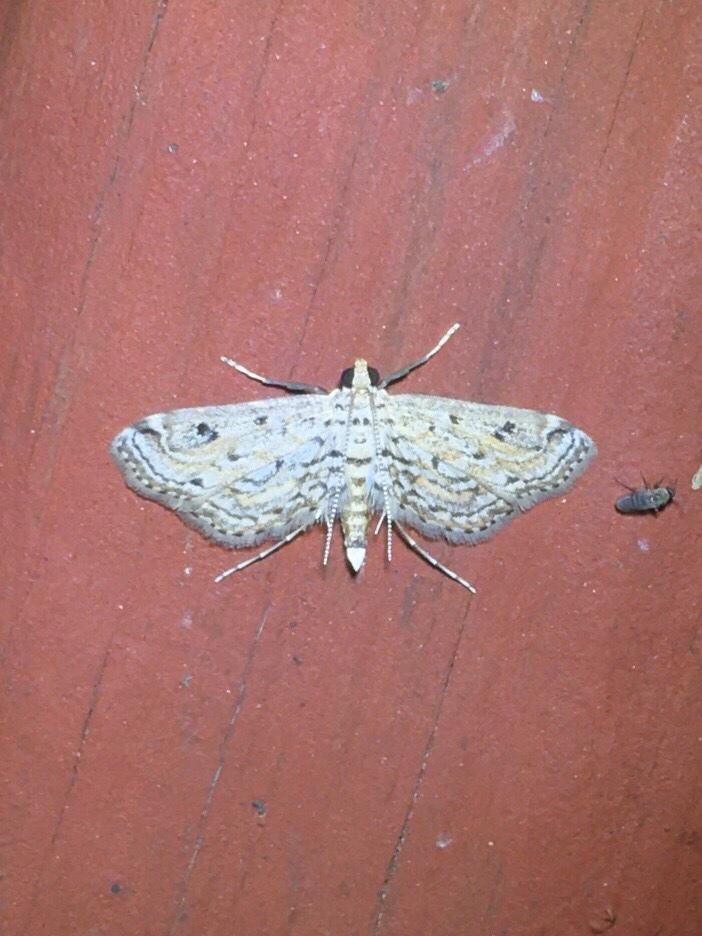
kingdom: Animalia
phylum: Arthropoda
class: Insecta
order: Lepidoptera
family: Crambidae
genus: Parapoynx
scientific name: Parapoynx allionealis
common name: Bladderwort casemaker
